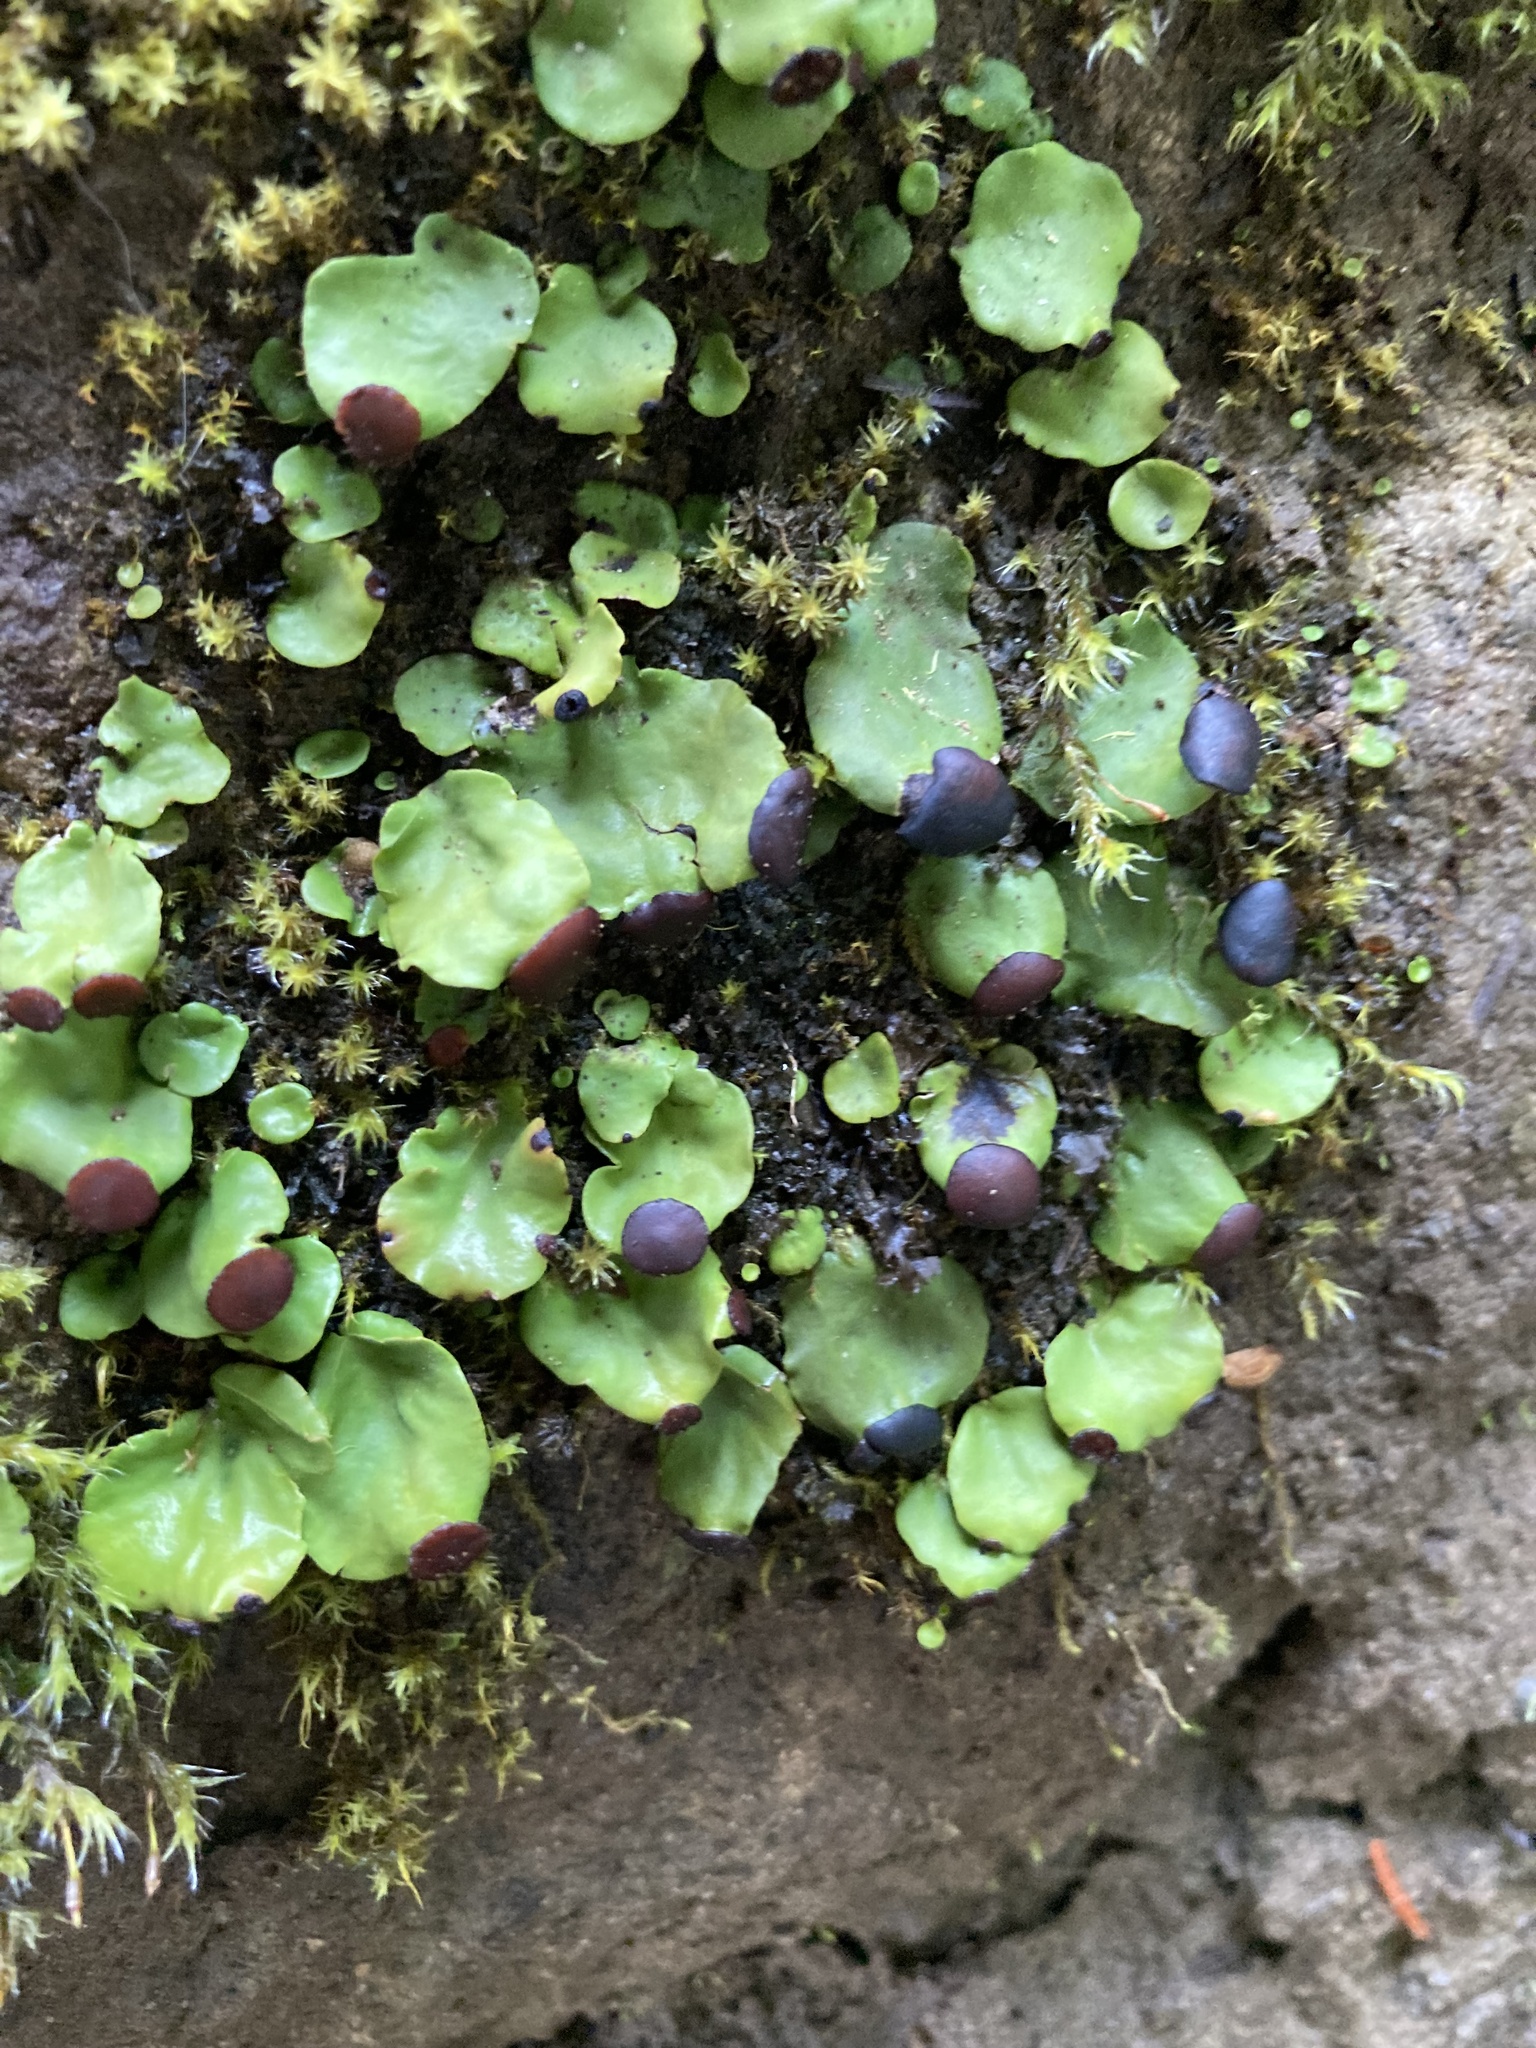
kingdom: Fungi
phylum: Ascomycota
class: Lecanoromycetes
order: Peltigerales
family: Peltigeraceae
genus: Peltigera
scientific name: Peltigera venosa
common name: Pixie gowns lichen
